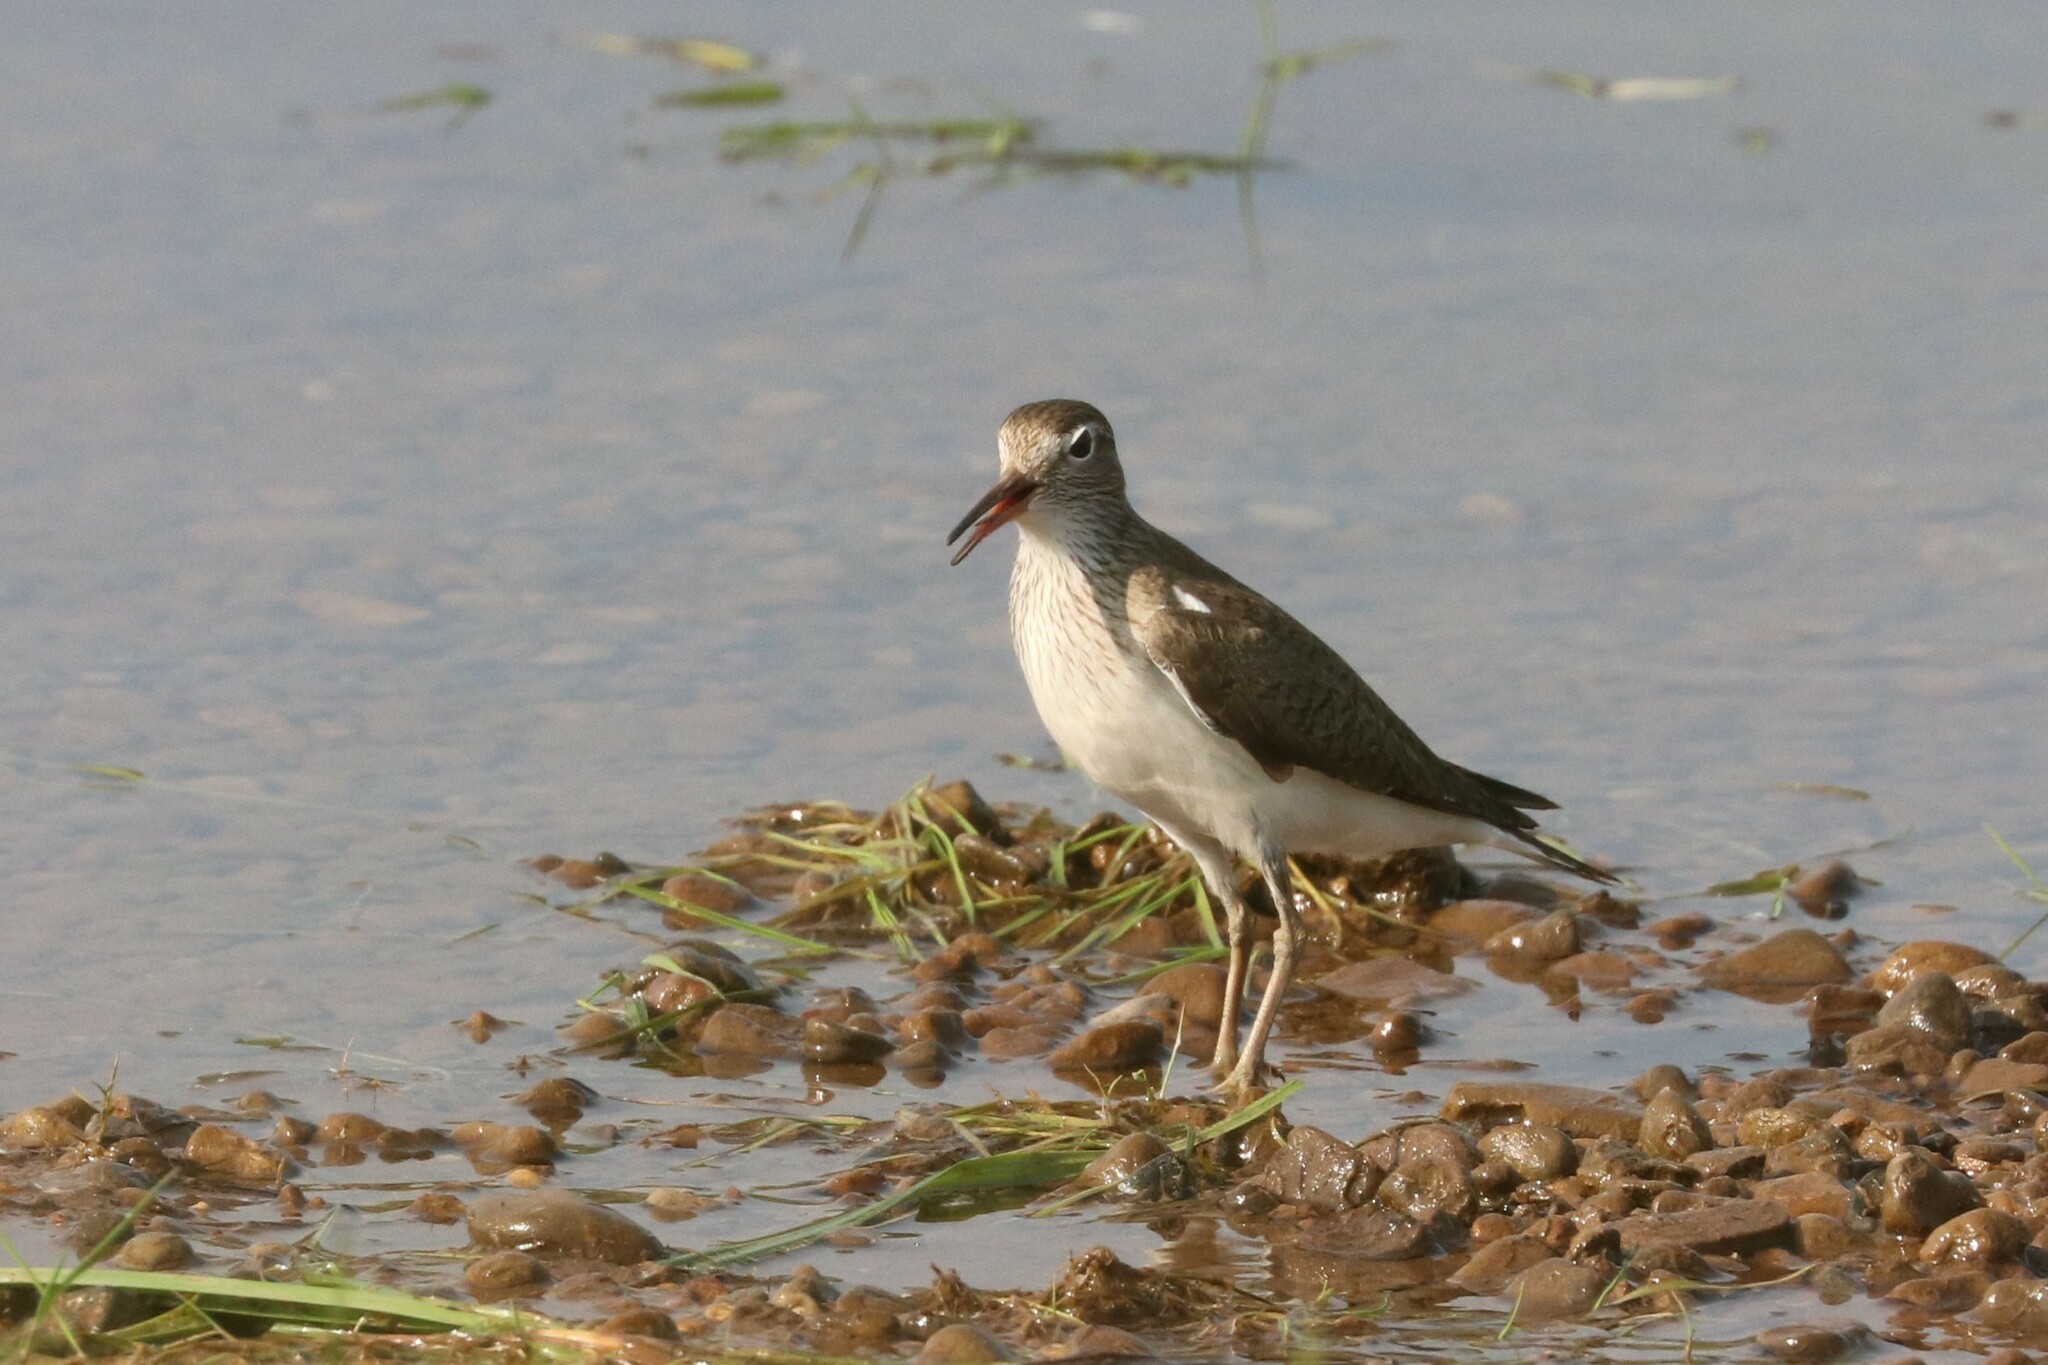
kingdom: Animalia
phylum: Chordata
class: Aves
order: Charadriiformes
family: Scolopacidae
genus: Actitis
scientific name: Actitis hypoleucos
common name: Common sandpiper
